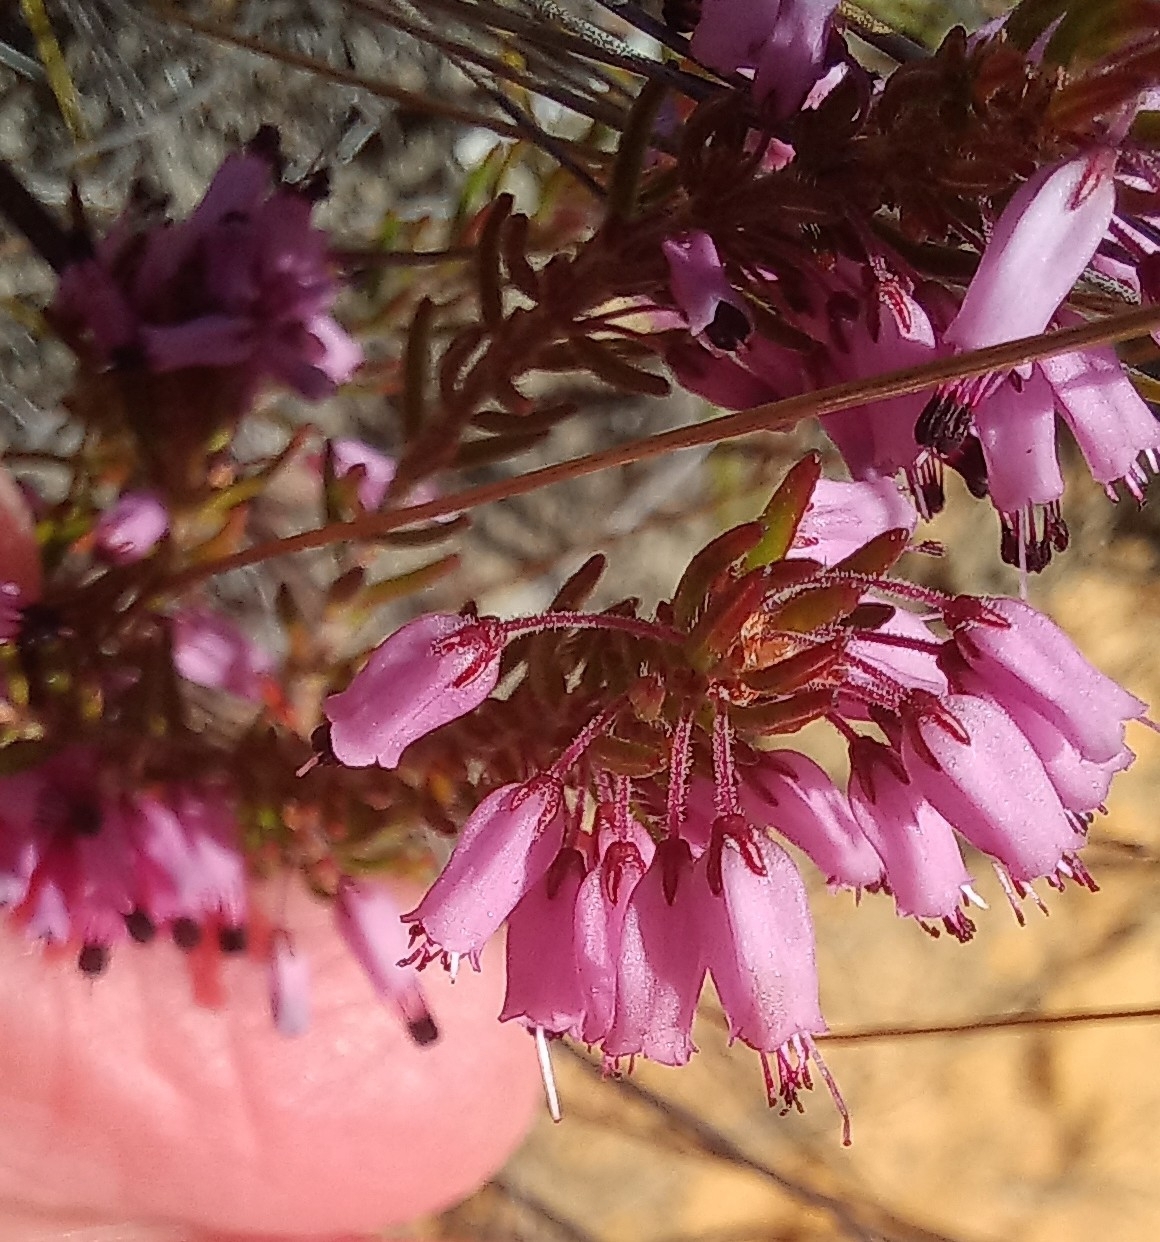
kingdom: Plantae
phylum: Tracheophyta
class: Magnoliopsida
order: Ericales
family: Ericaceae
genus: Erica
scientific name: Erica nudiflora
